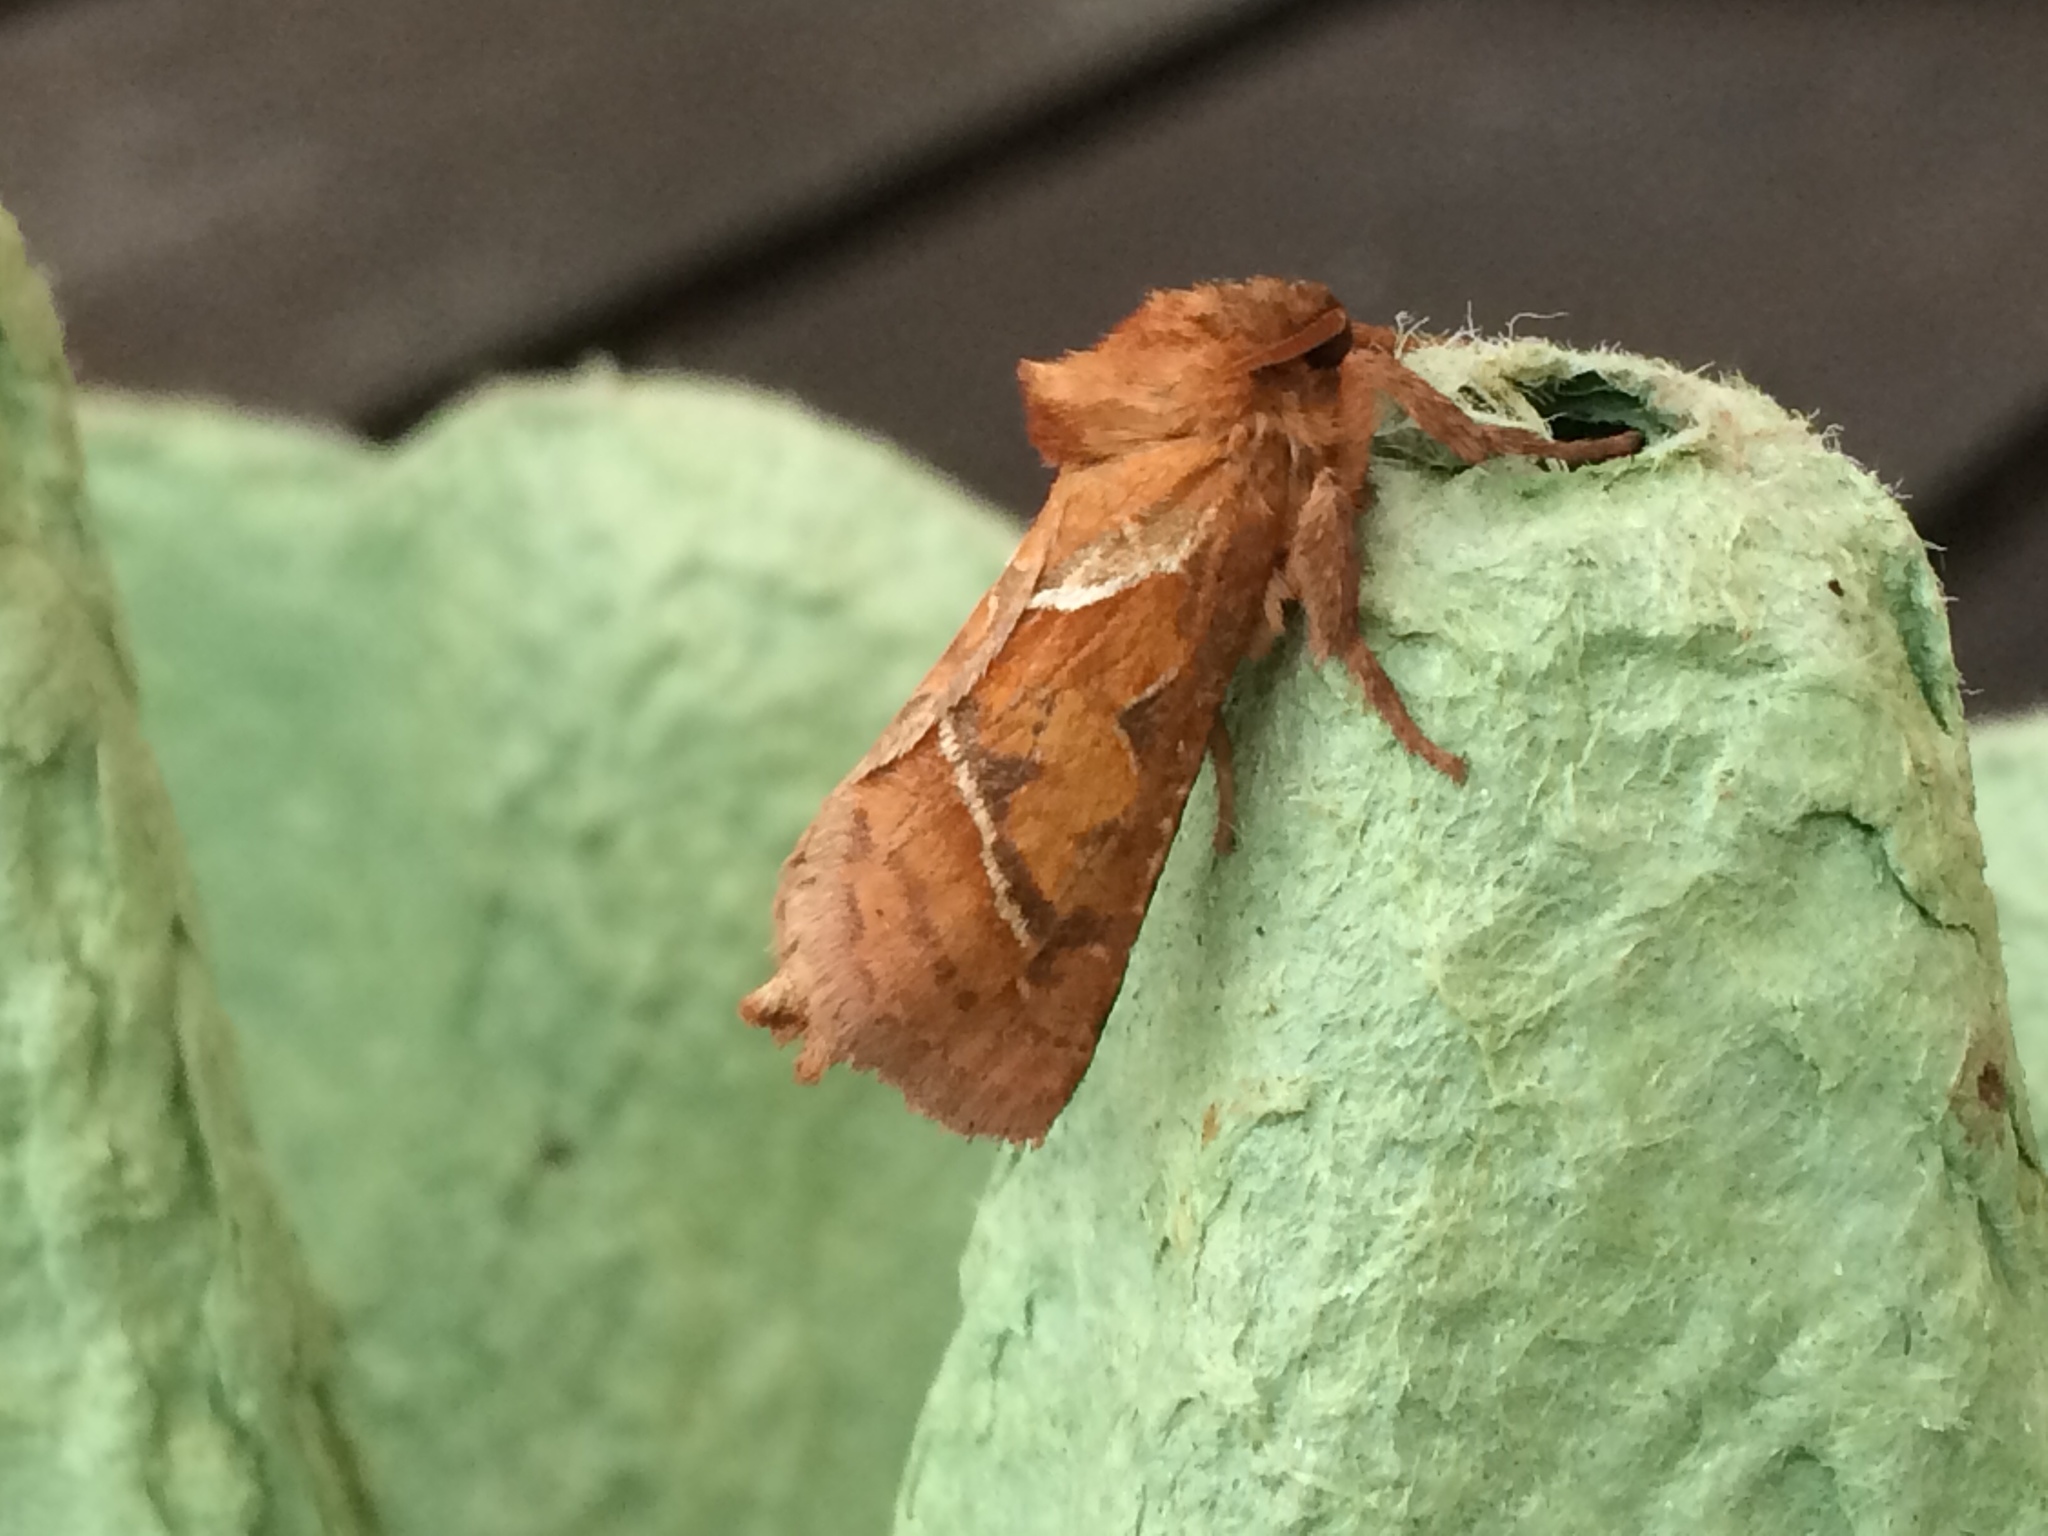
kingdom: Animalia
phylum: Arthropoda
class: Insecta
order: Lepidoptera
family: Hepialidae
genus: Triodia
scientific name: Triodia sylvina
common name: Orange swift
